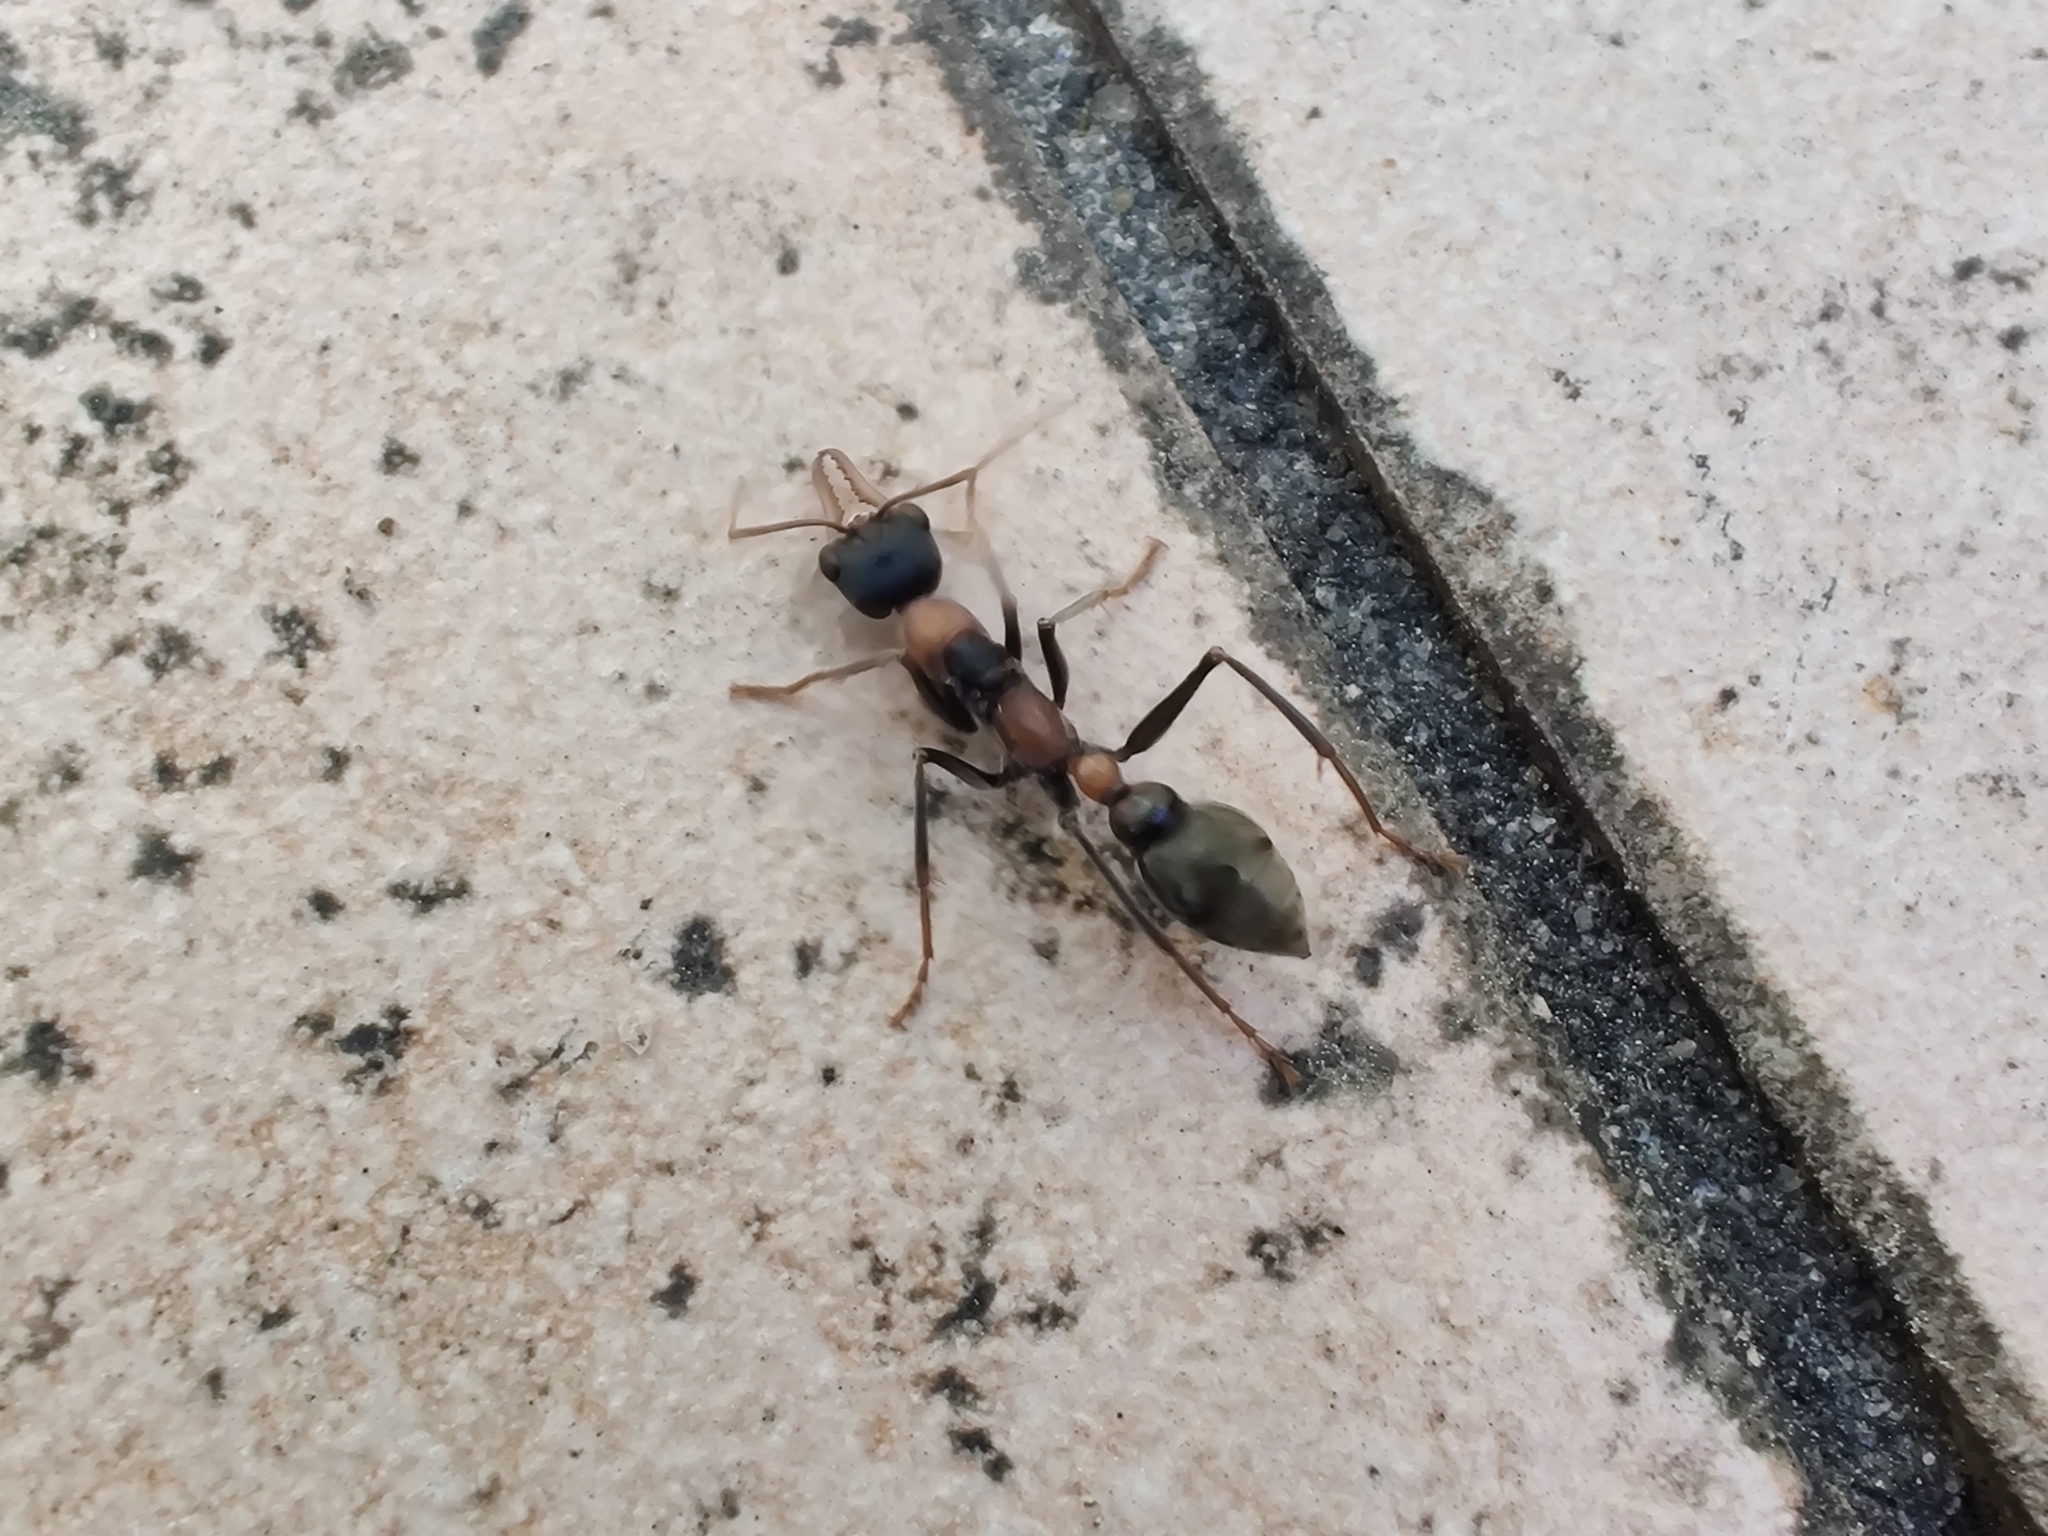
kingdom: Animalia
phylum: Arthropoda
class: Insecta
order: Hymenoptera
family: Formicidae
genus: Myrmecia
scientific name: Myrmecia nigrocincta
